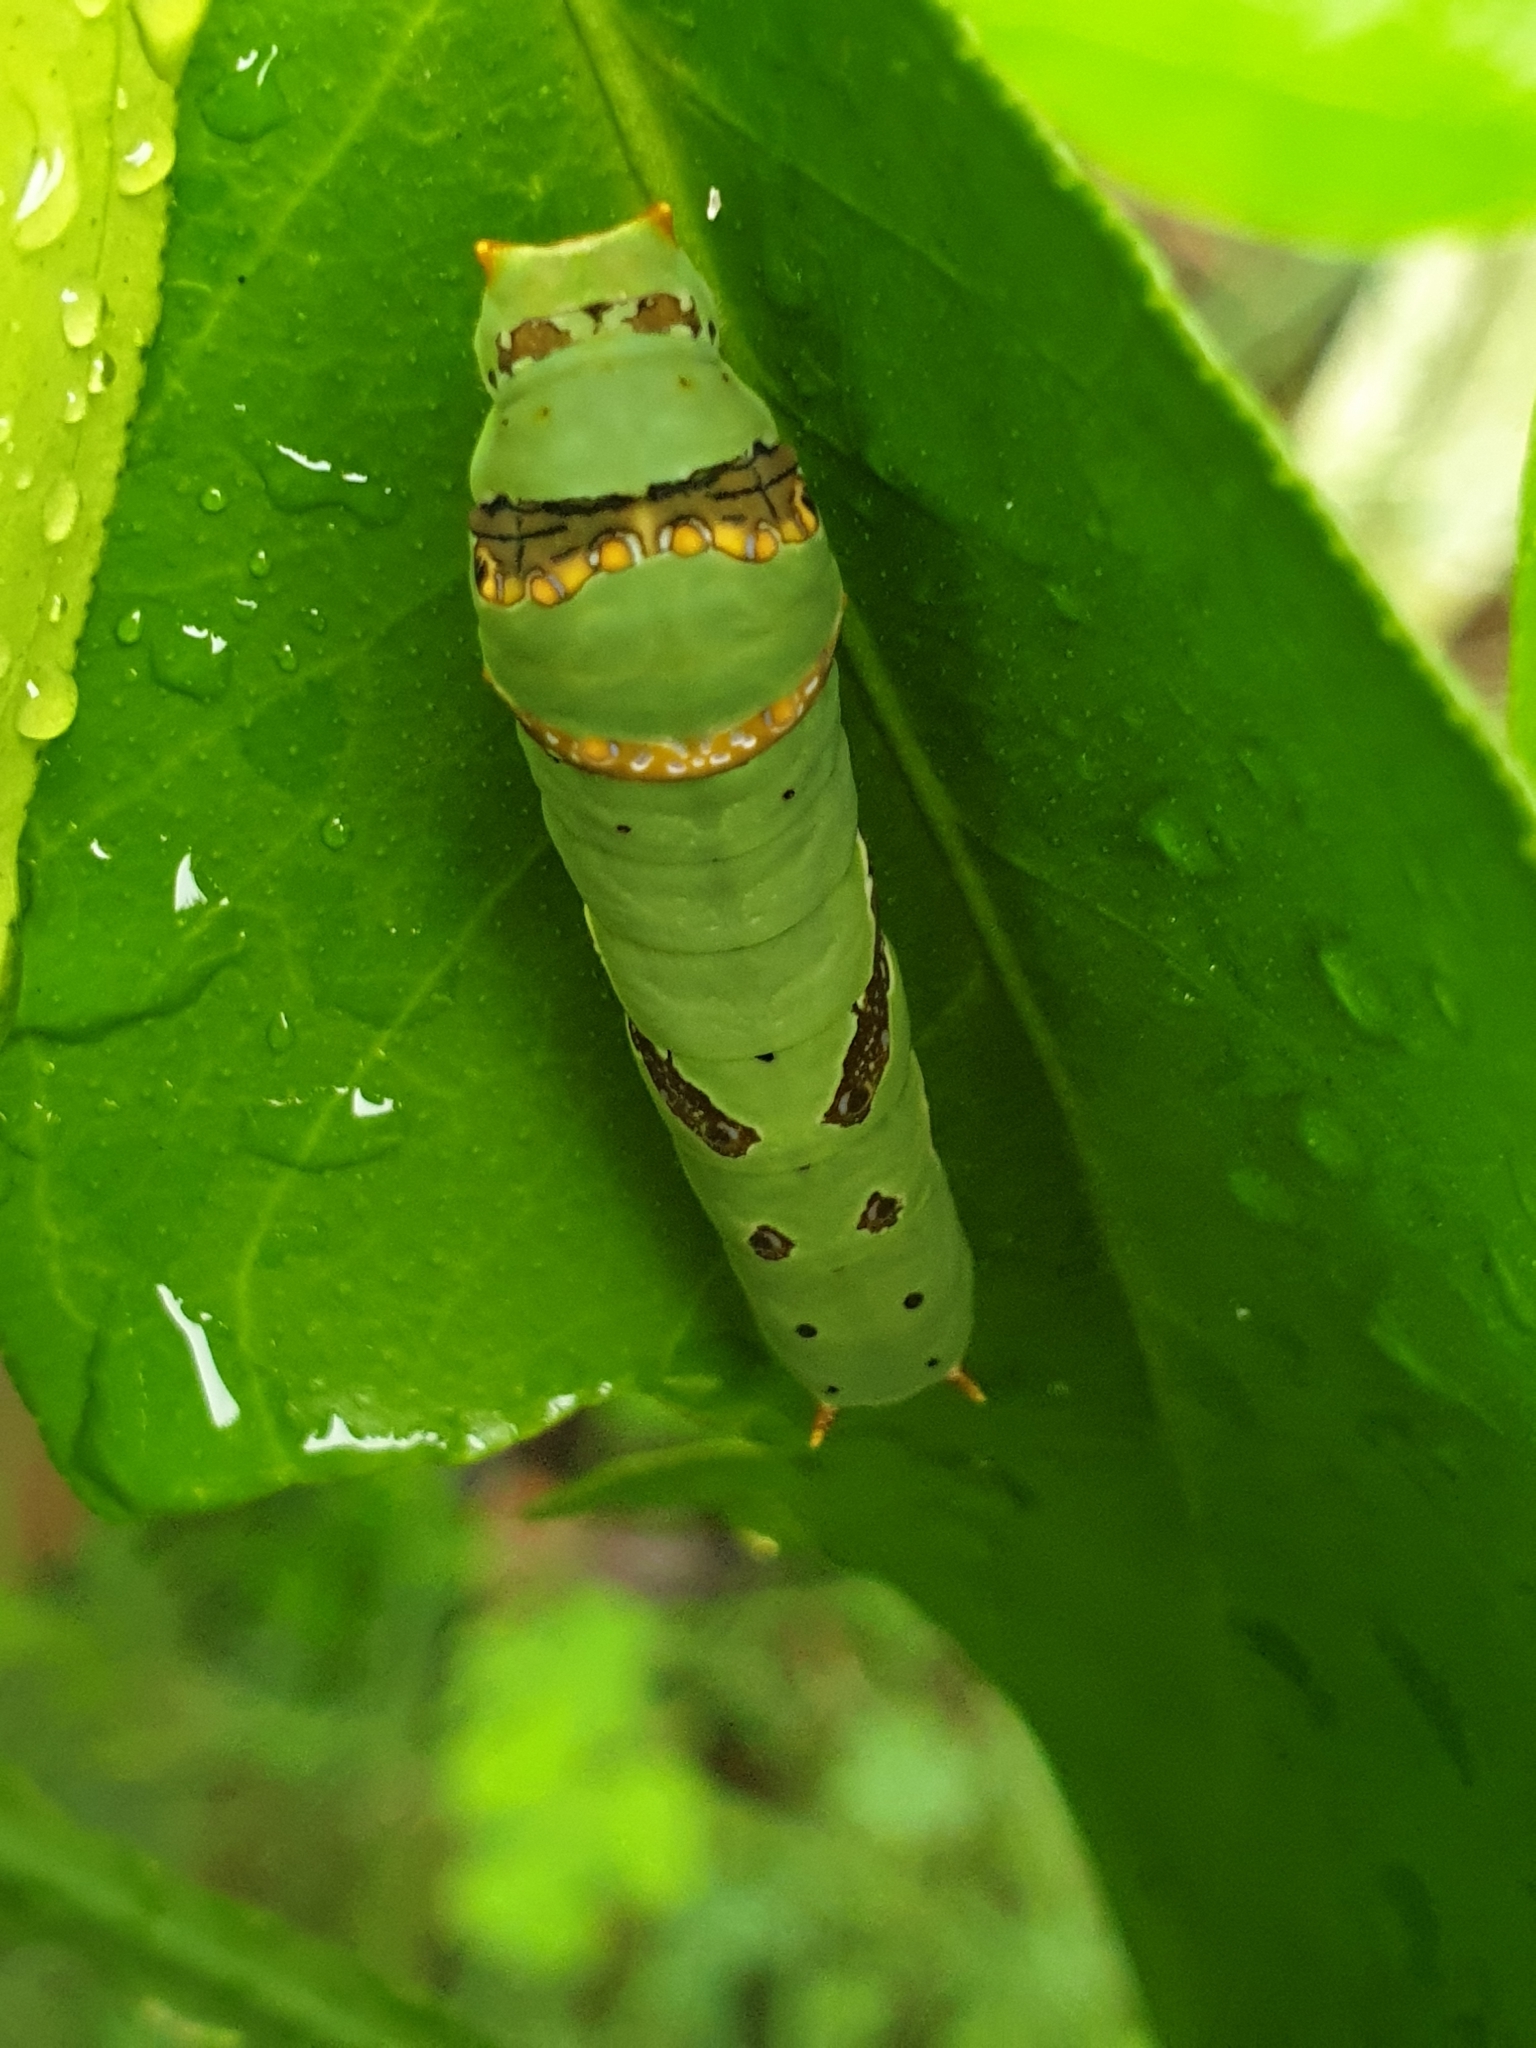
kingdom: Animalia
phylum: Arthropoda
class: Insecta
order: Lepidoptera
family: Papilionidae
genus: Papilio
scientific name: Papilio demoleus
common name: Lime butterfly
